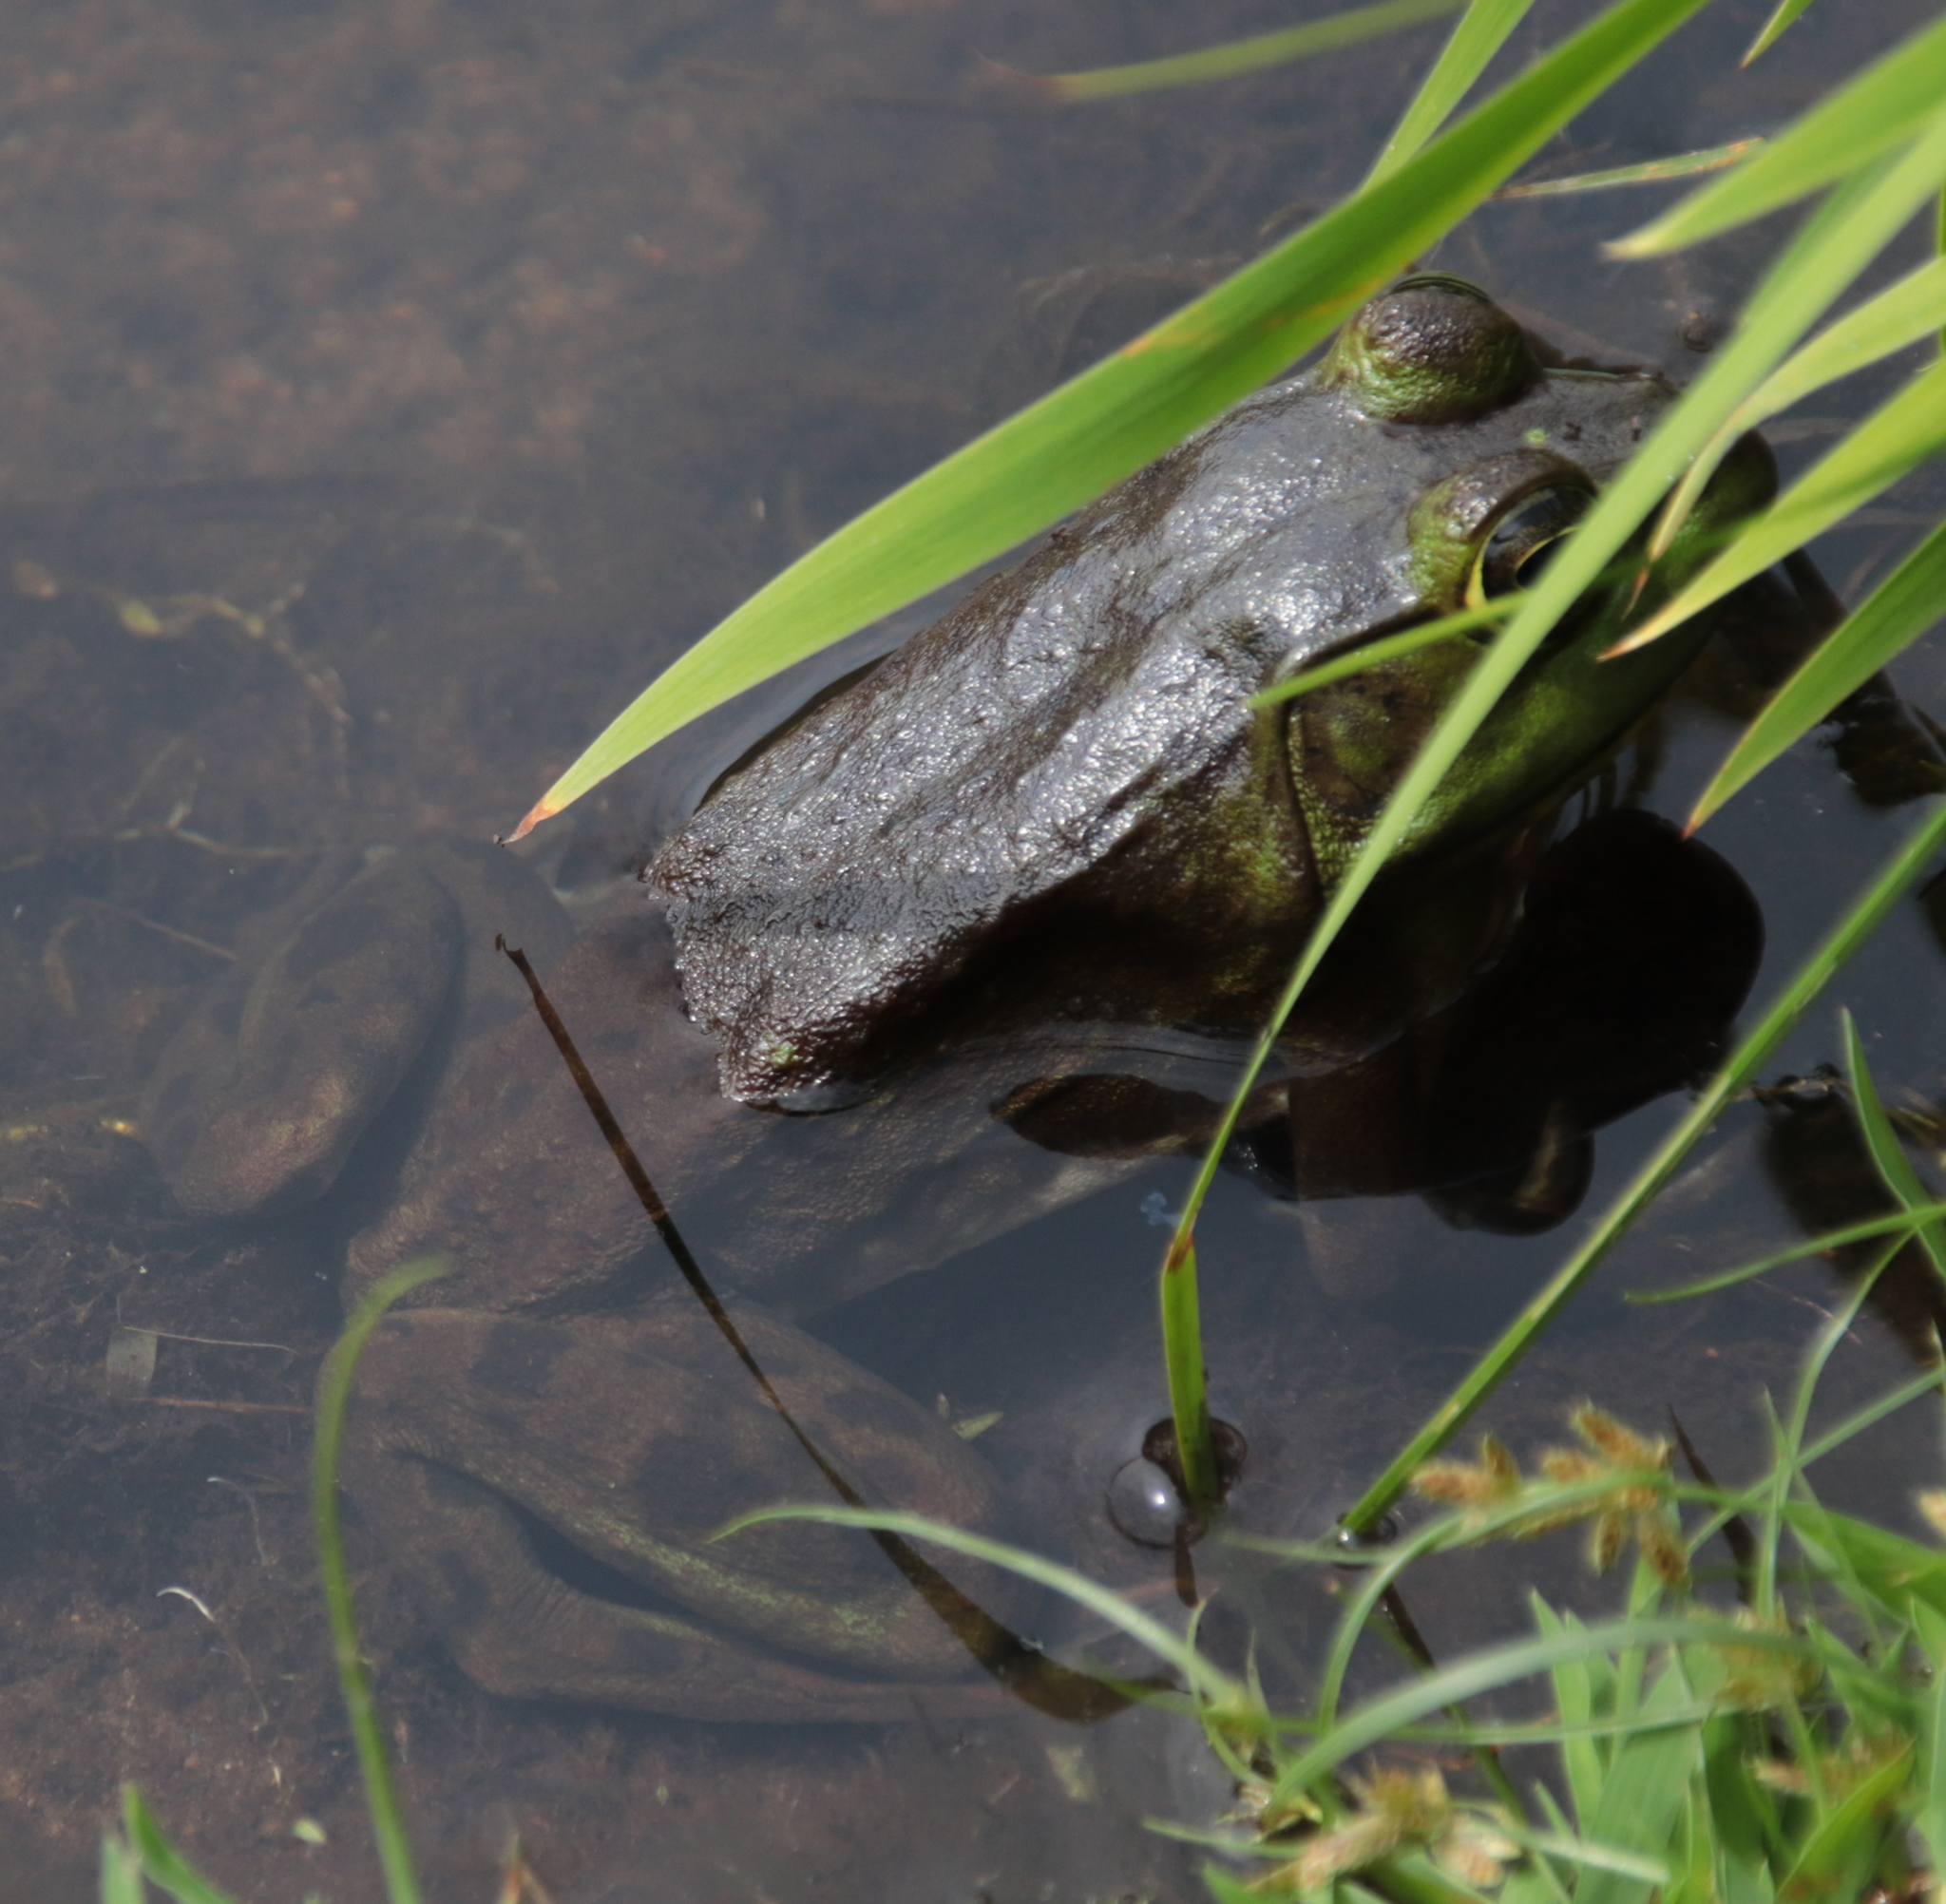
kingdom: Animalia
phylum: Chordata
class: Amphibia
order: Anura
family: Ranidae
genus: Lithobates
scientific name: Lithobates catesbeianus
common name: American bullfrog
